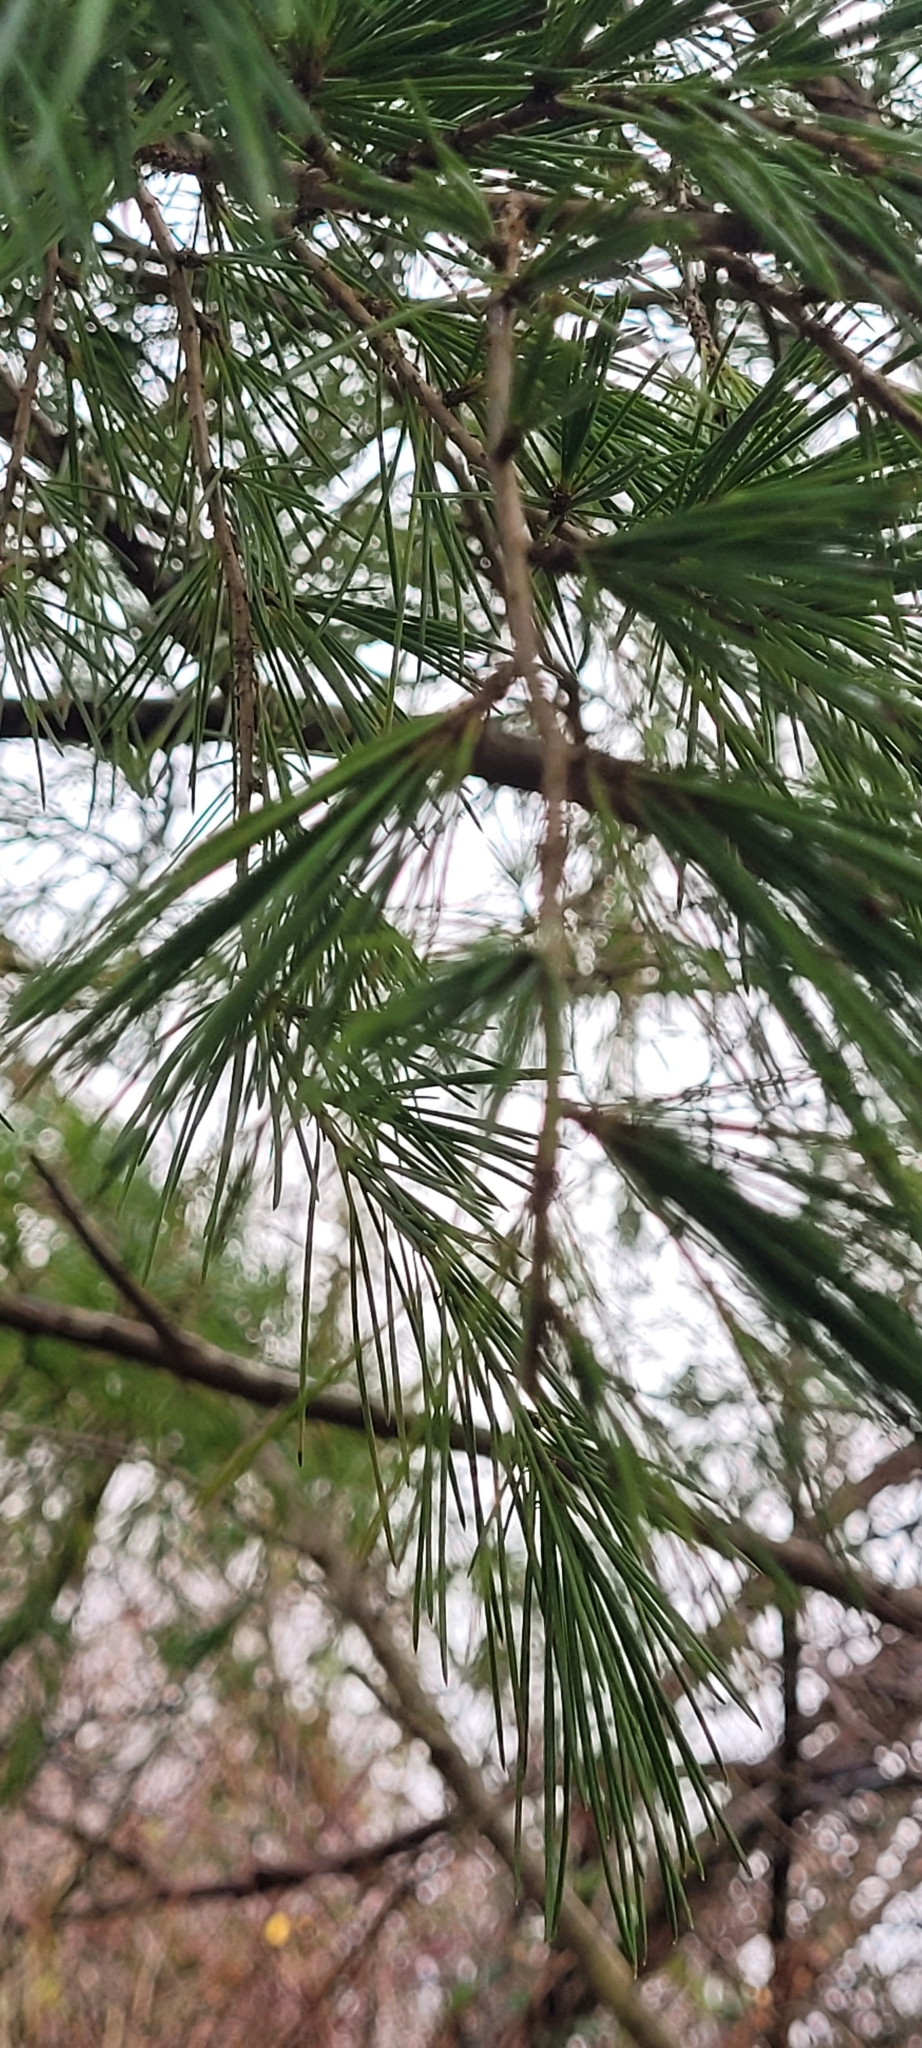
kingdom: Plantae
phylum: Tracheophyta
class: Pinopsida
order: Pinales
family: Pinaceae
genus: Pinus
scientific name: Pinus contorta
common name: Lodgepole pine
